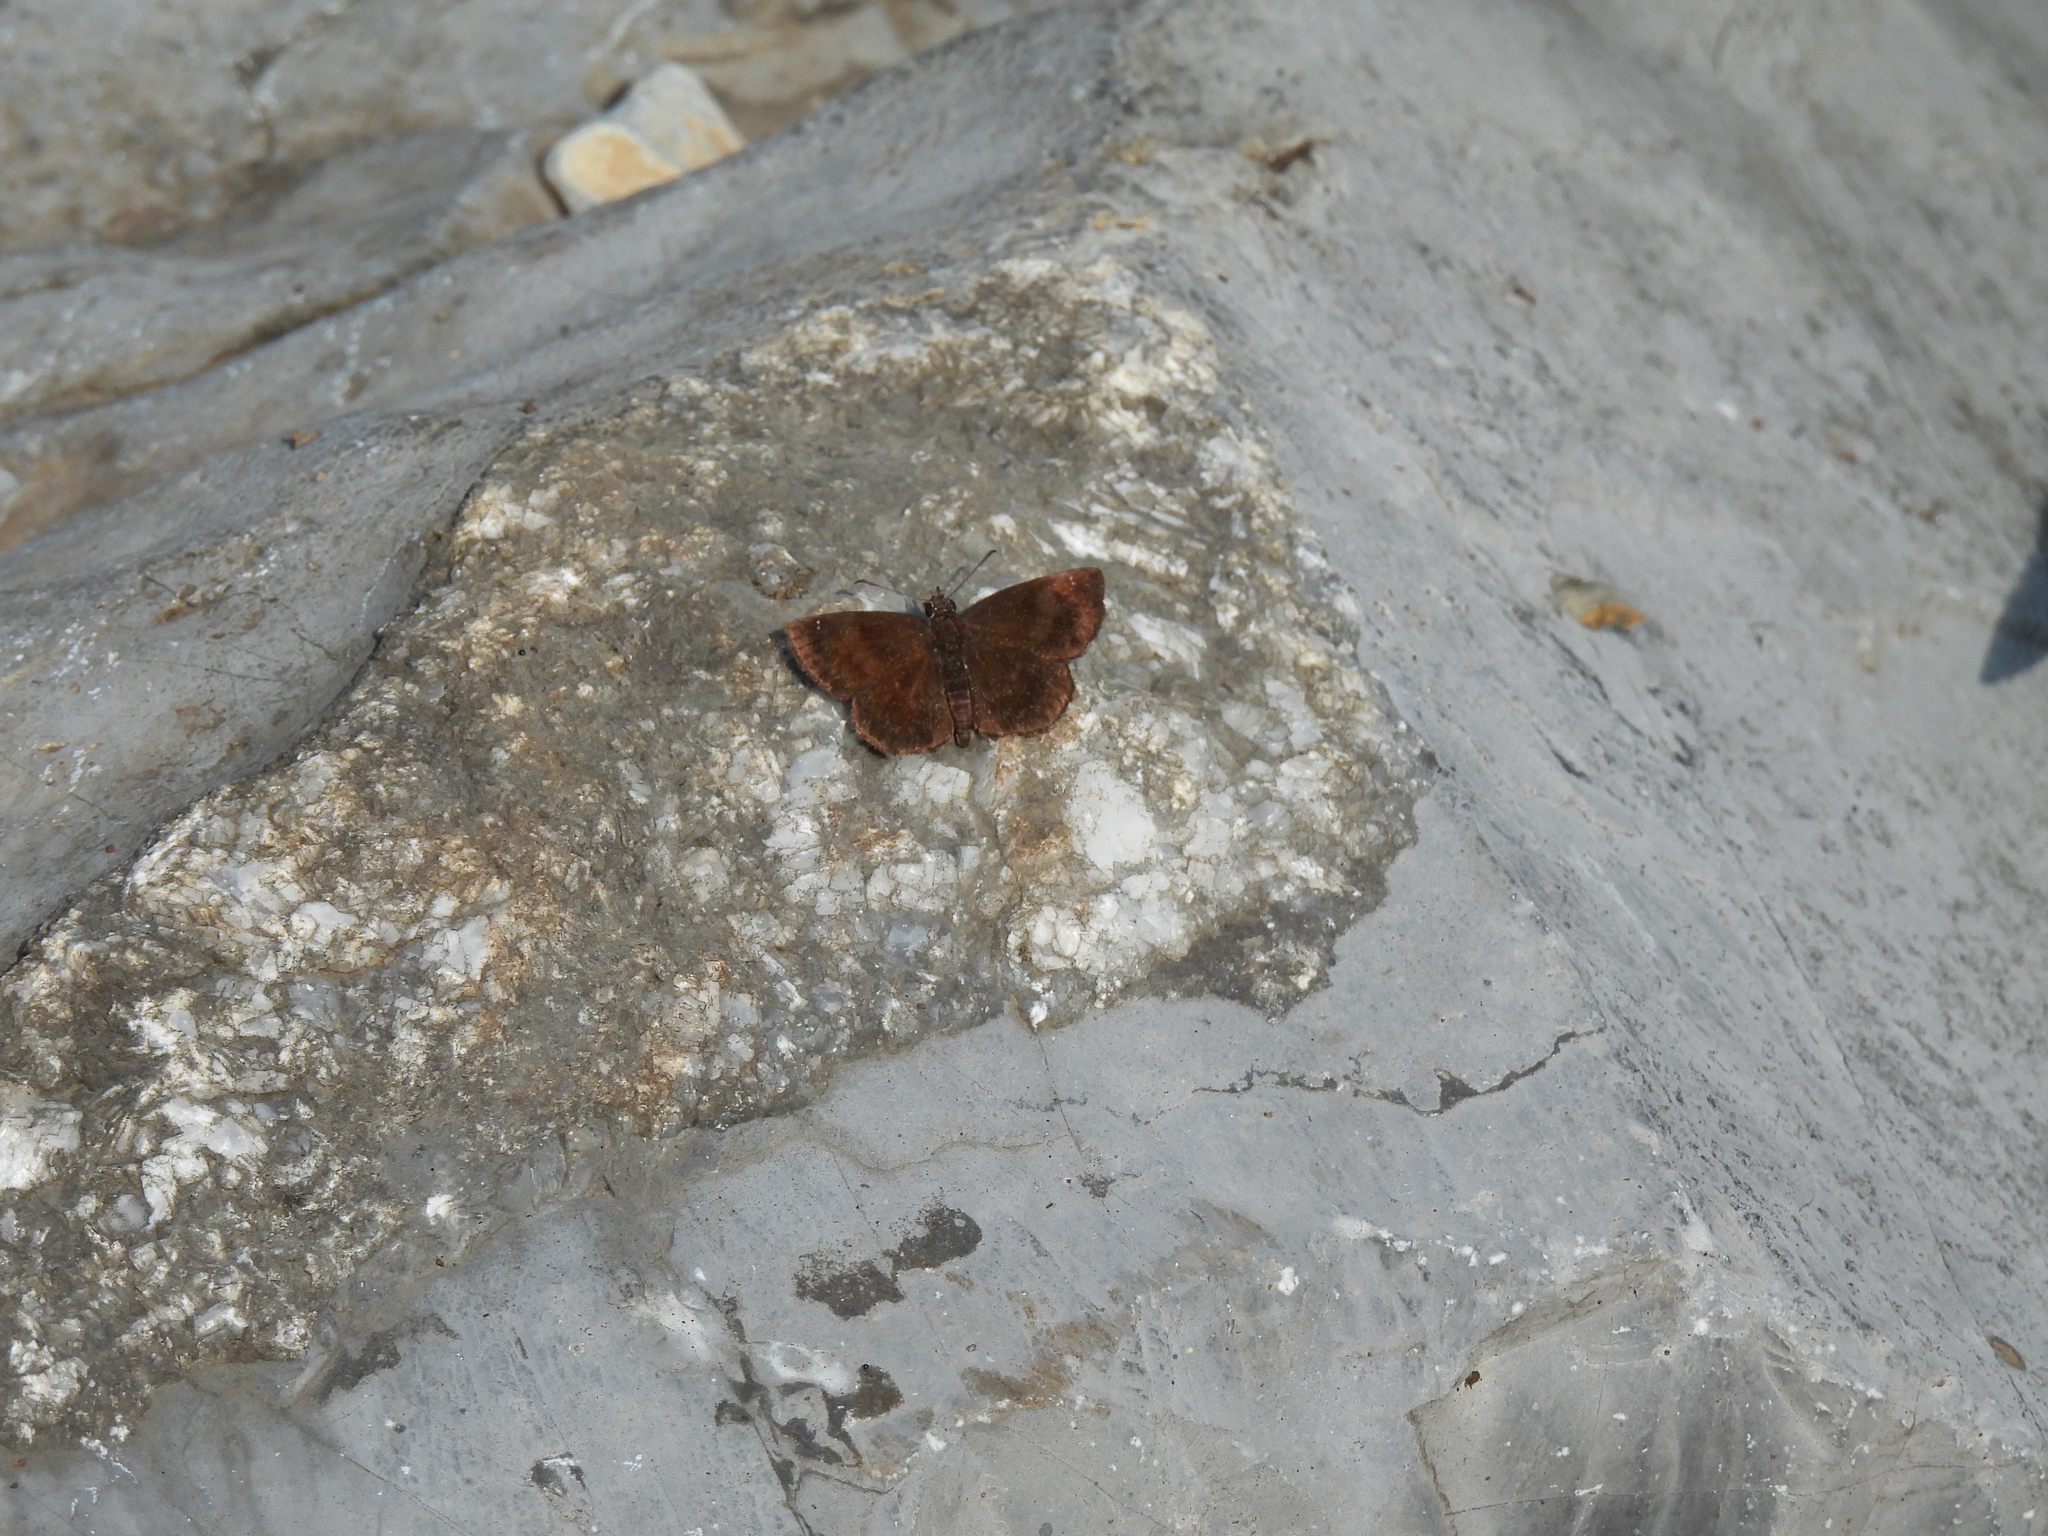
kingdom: Animalia
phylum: Arthropoda
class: Insecta
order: Lepidoptera
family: Hesperiidae
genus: Staphylus
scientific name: Staphylus mazans
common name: Mazans scallopwing
